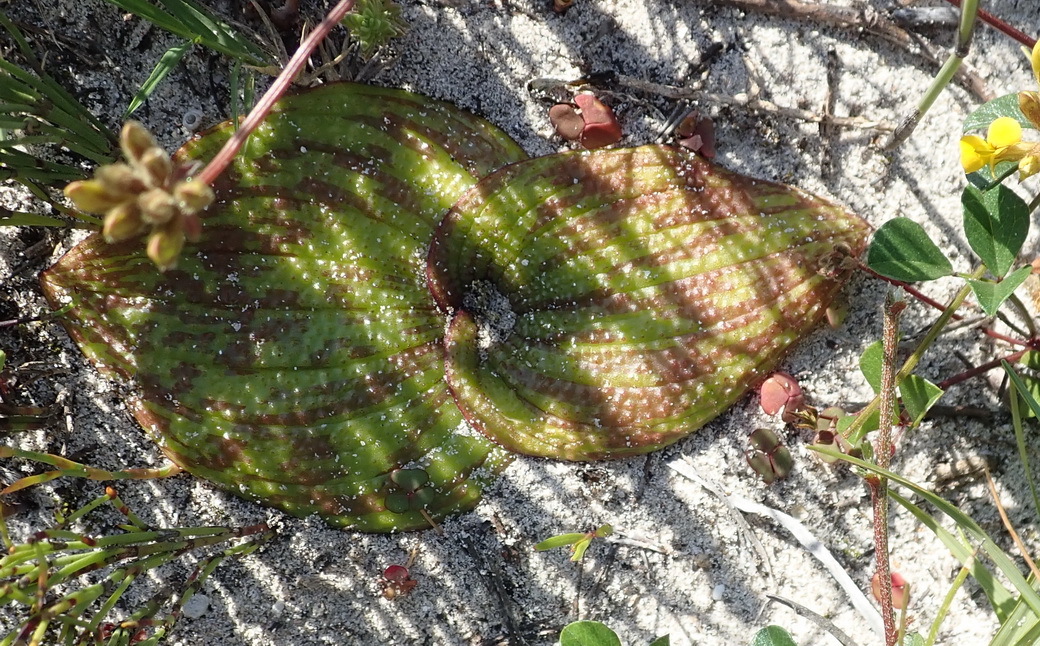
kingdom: Plantae
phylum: Tracheophyta
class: Liliopsida
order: Asparagales
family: Asparagaceae
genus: Massonia
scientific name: Massonia longipes
